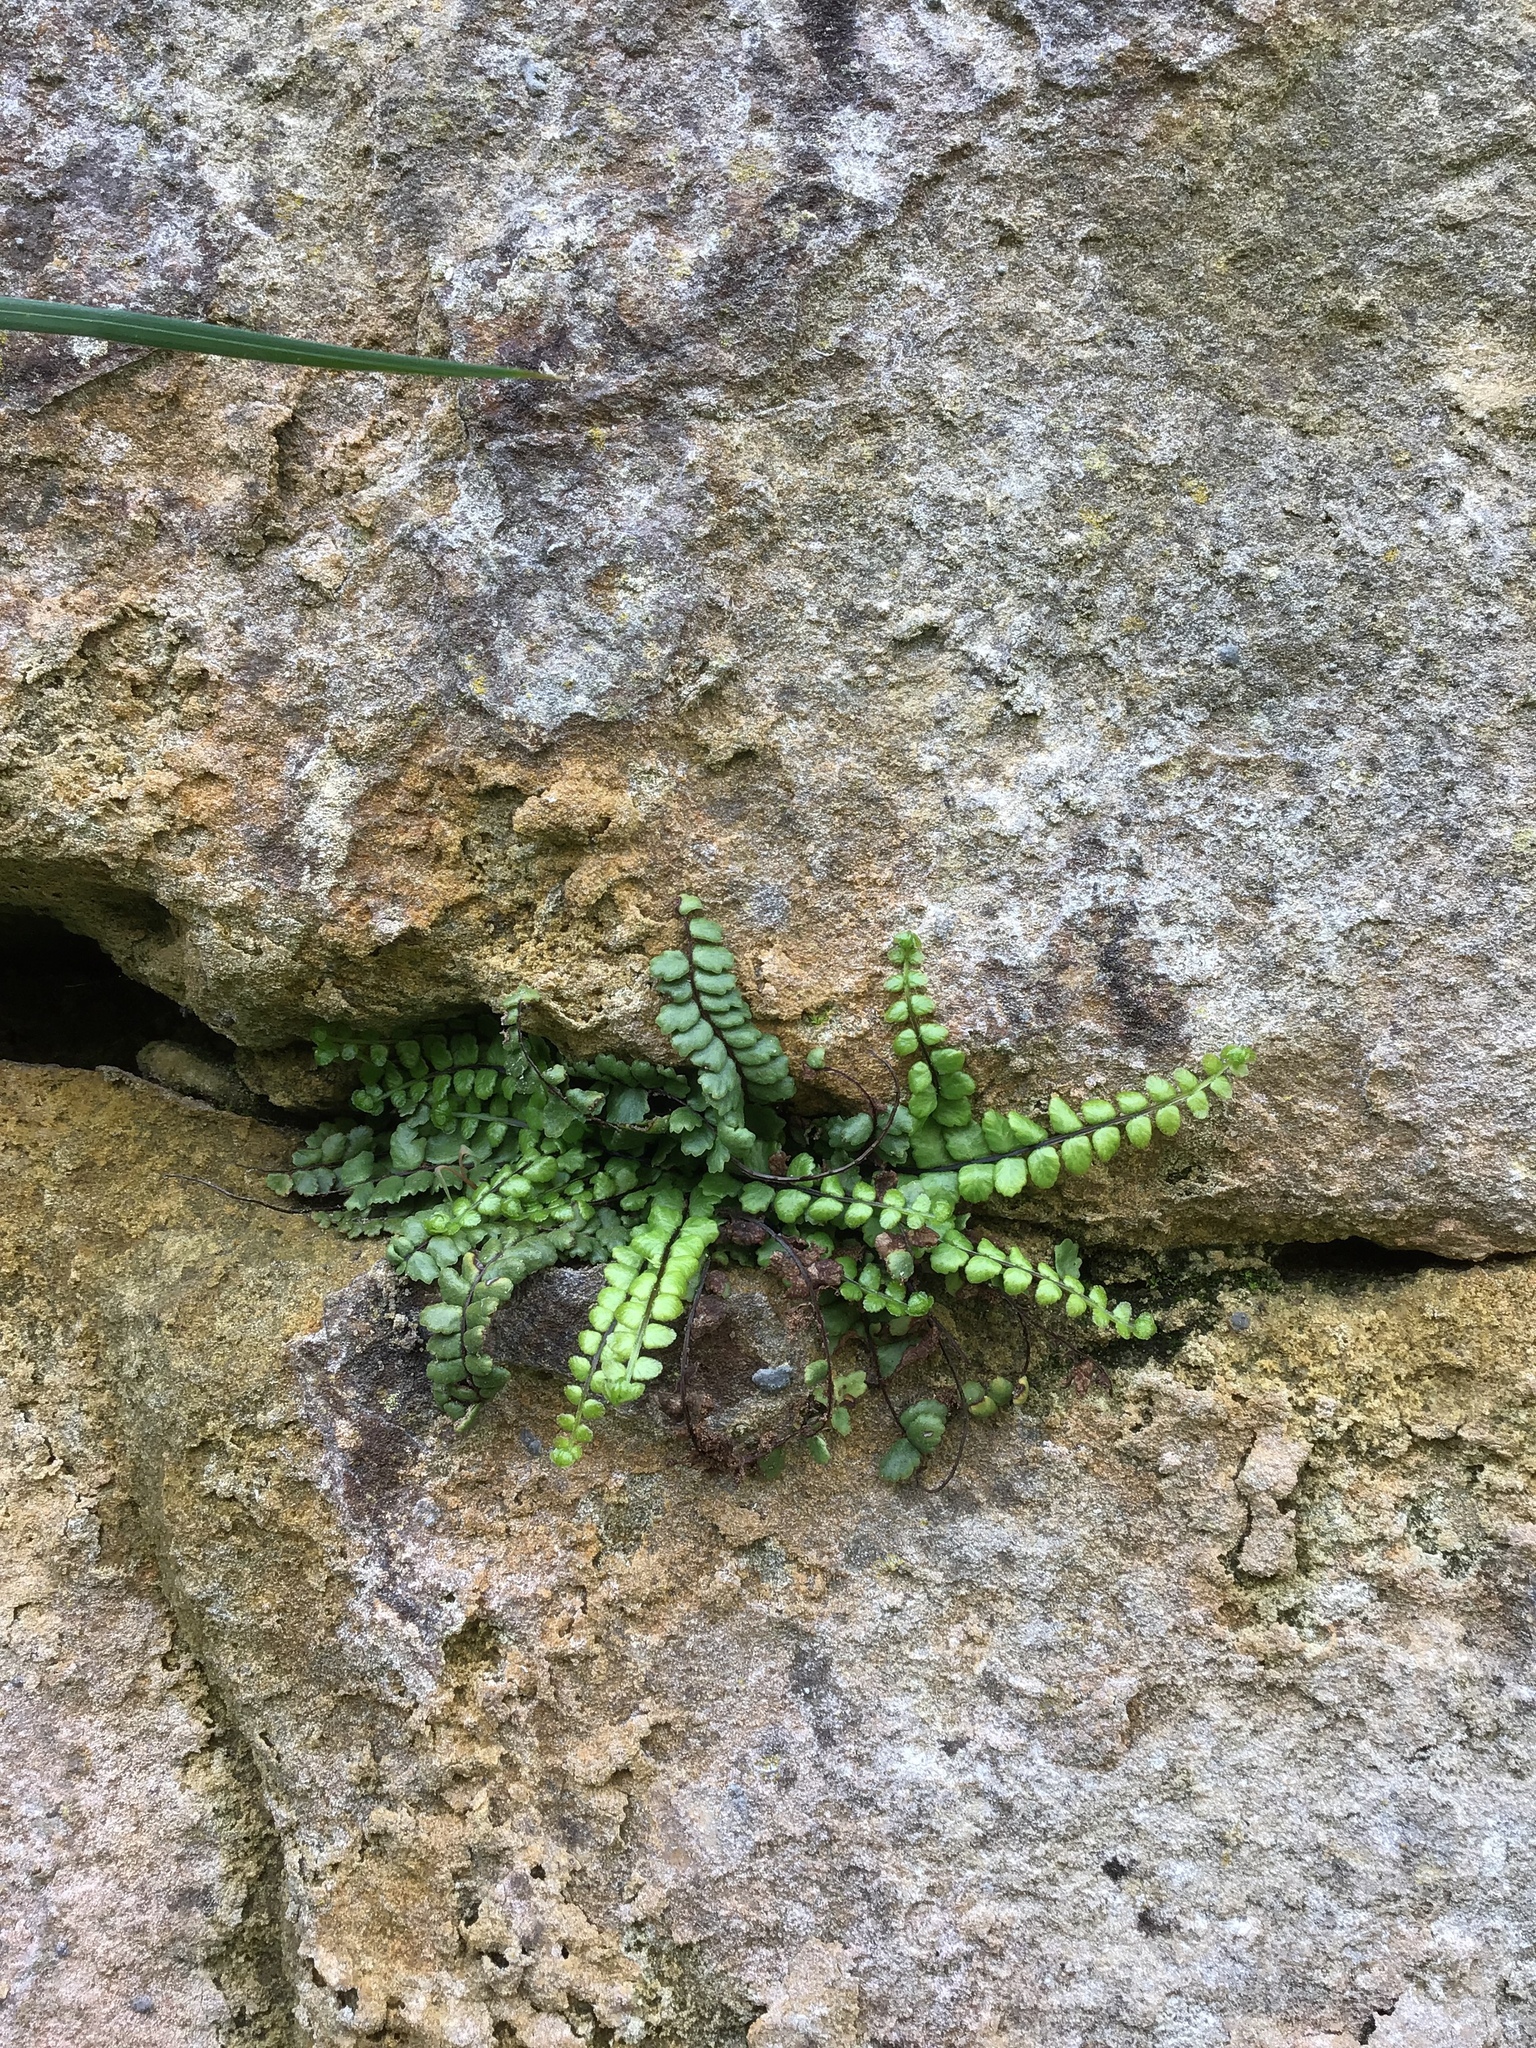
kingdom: Plantae
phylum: Tracheophyta
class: Polypodiopsida
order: Polypodiales
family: Aspleniaceae
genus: Asplenium
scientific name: Asplenium trichomanes
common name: Maidenhair spleenwort
